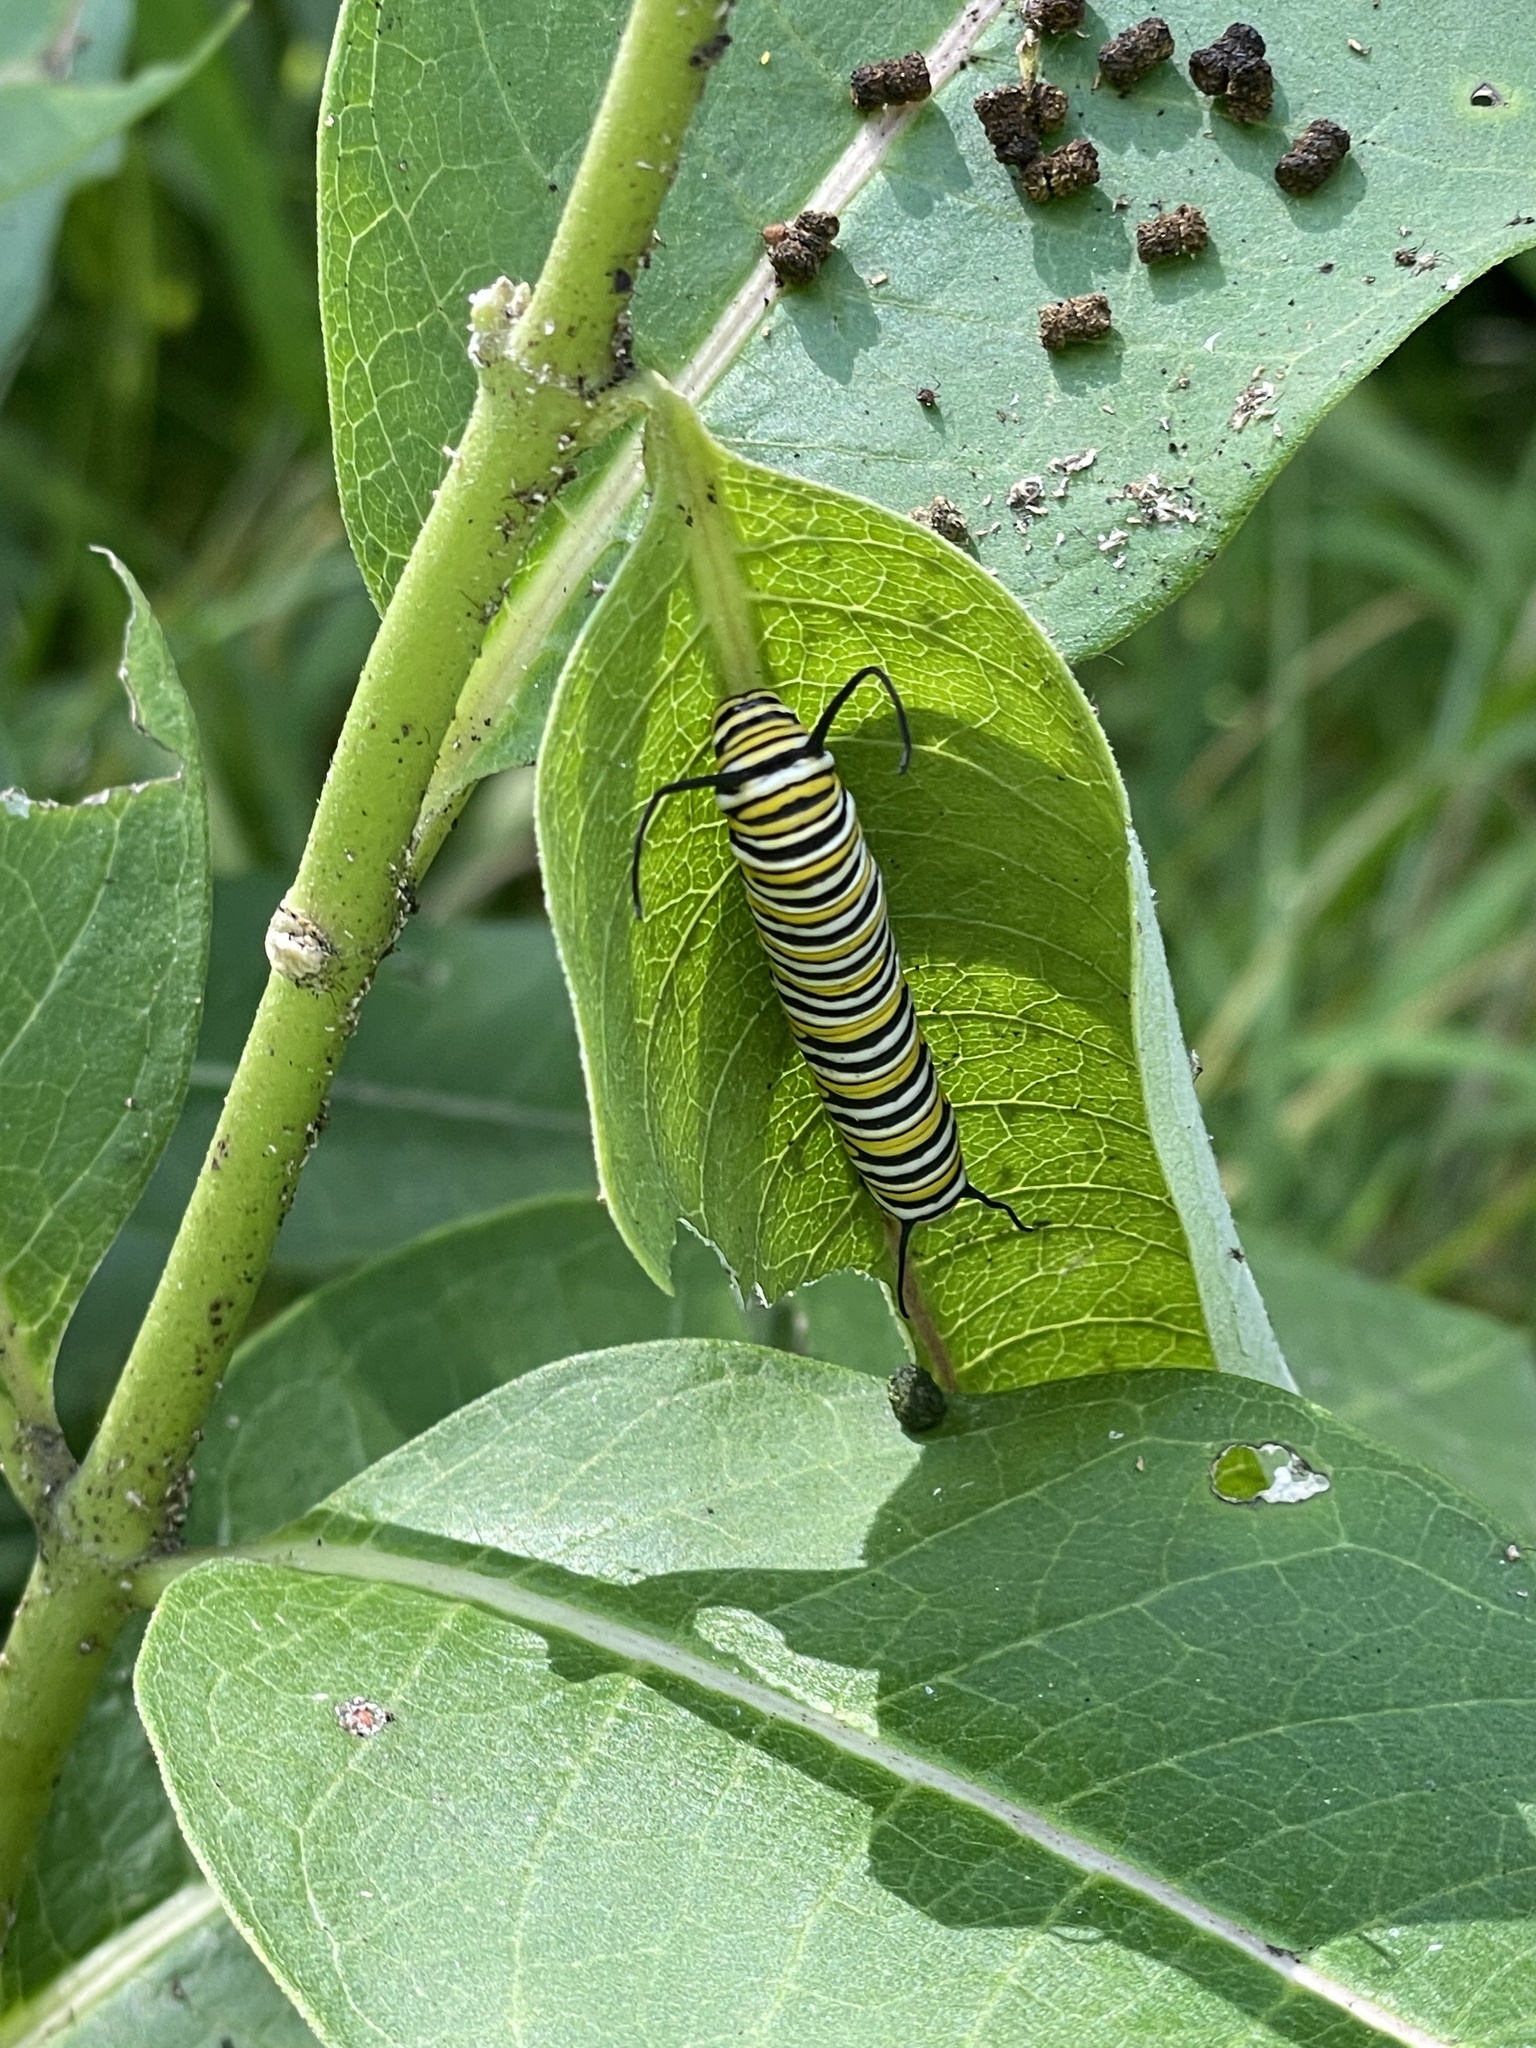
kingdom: Animalia
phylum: Arthropoda
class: Insecta
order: Lepidoptera
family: Nymphalidae
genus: Danaus
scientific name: Danaus plexippus
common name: Monarch
